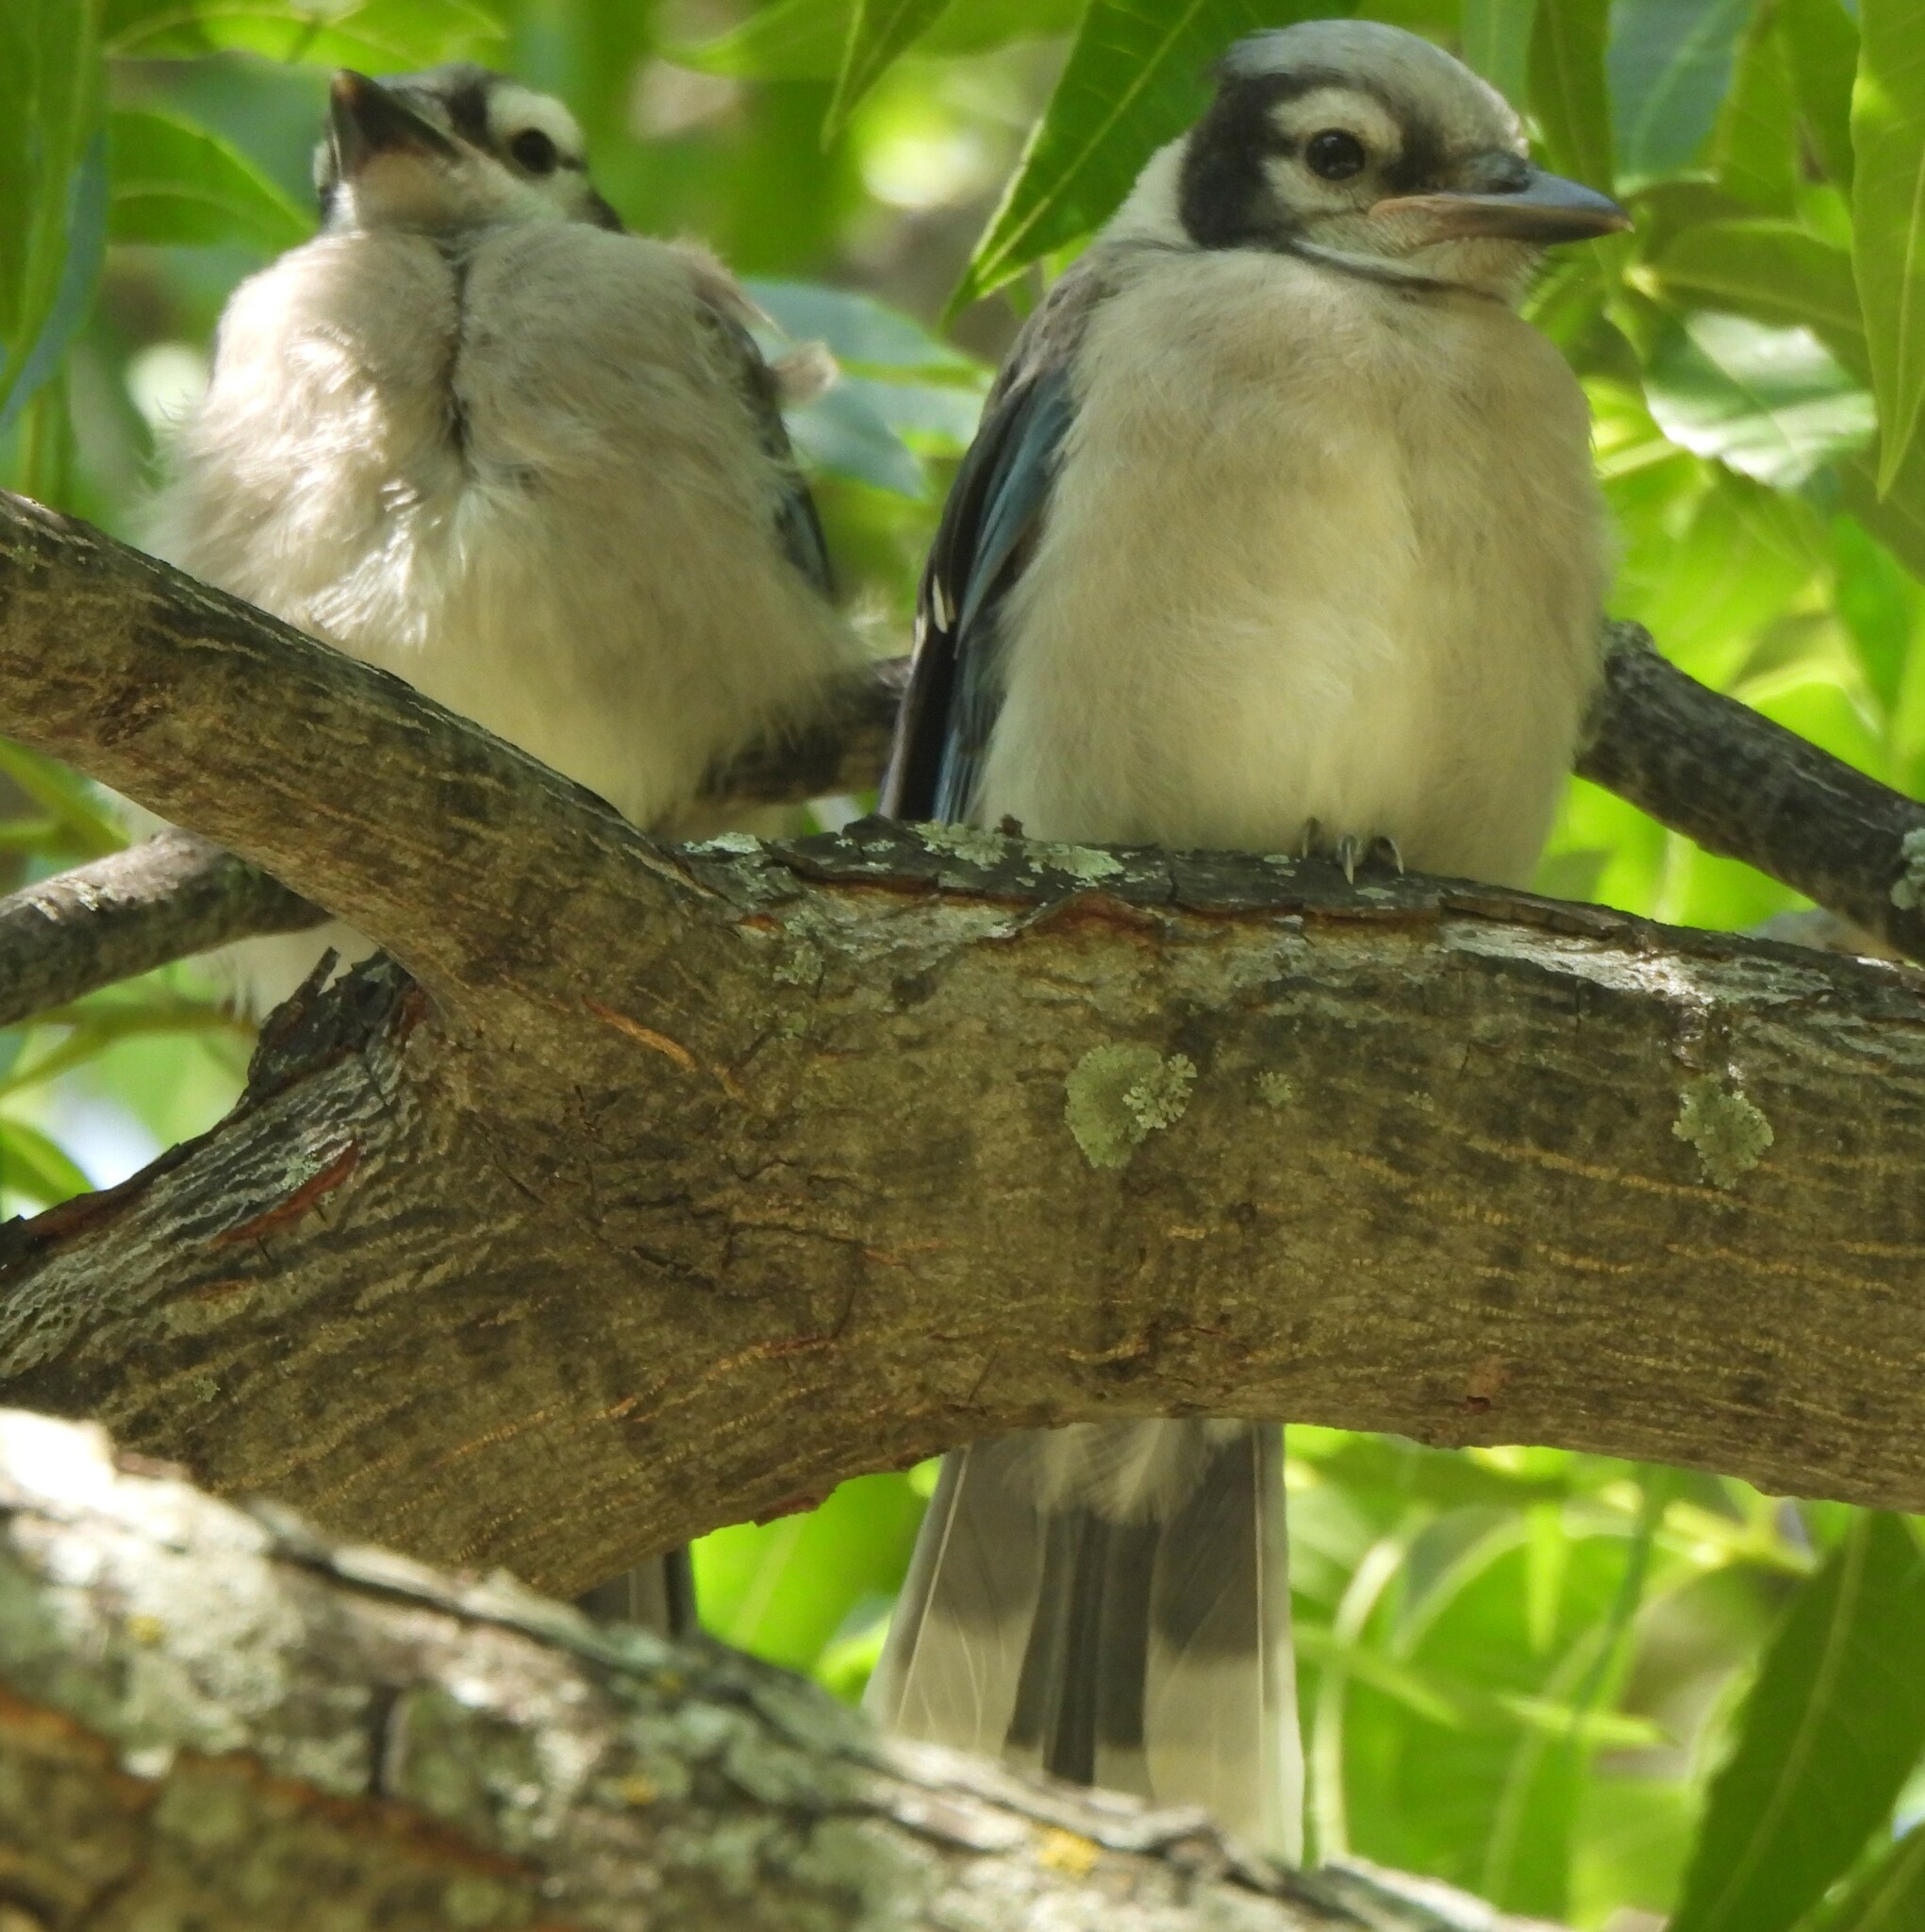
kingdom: Animalia
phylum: Chordata
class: Aves
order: Passeriformes
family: Corvidae
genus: Cyanocitta
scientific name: Cyanocitta cristata
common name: Blue jay
